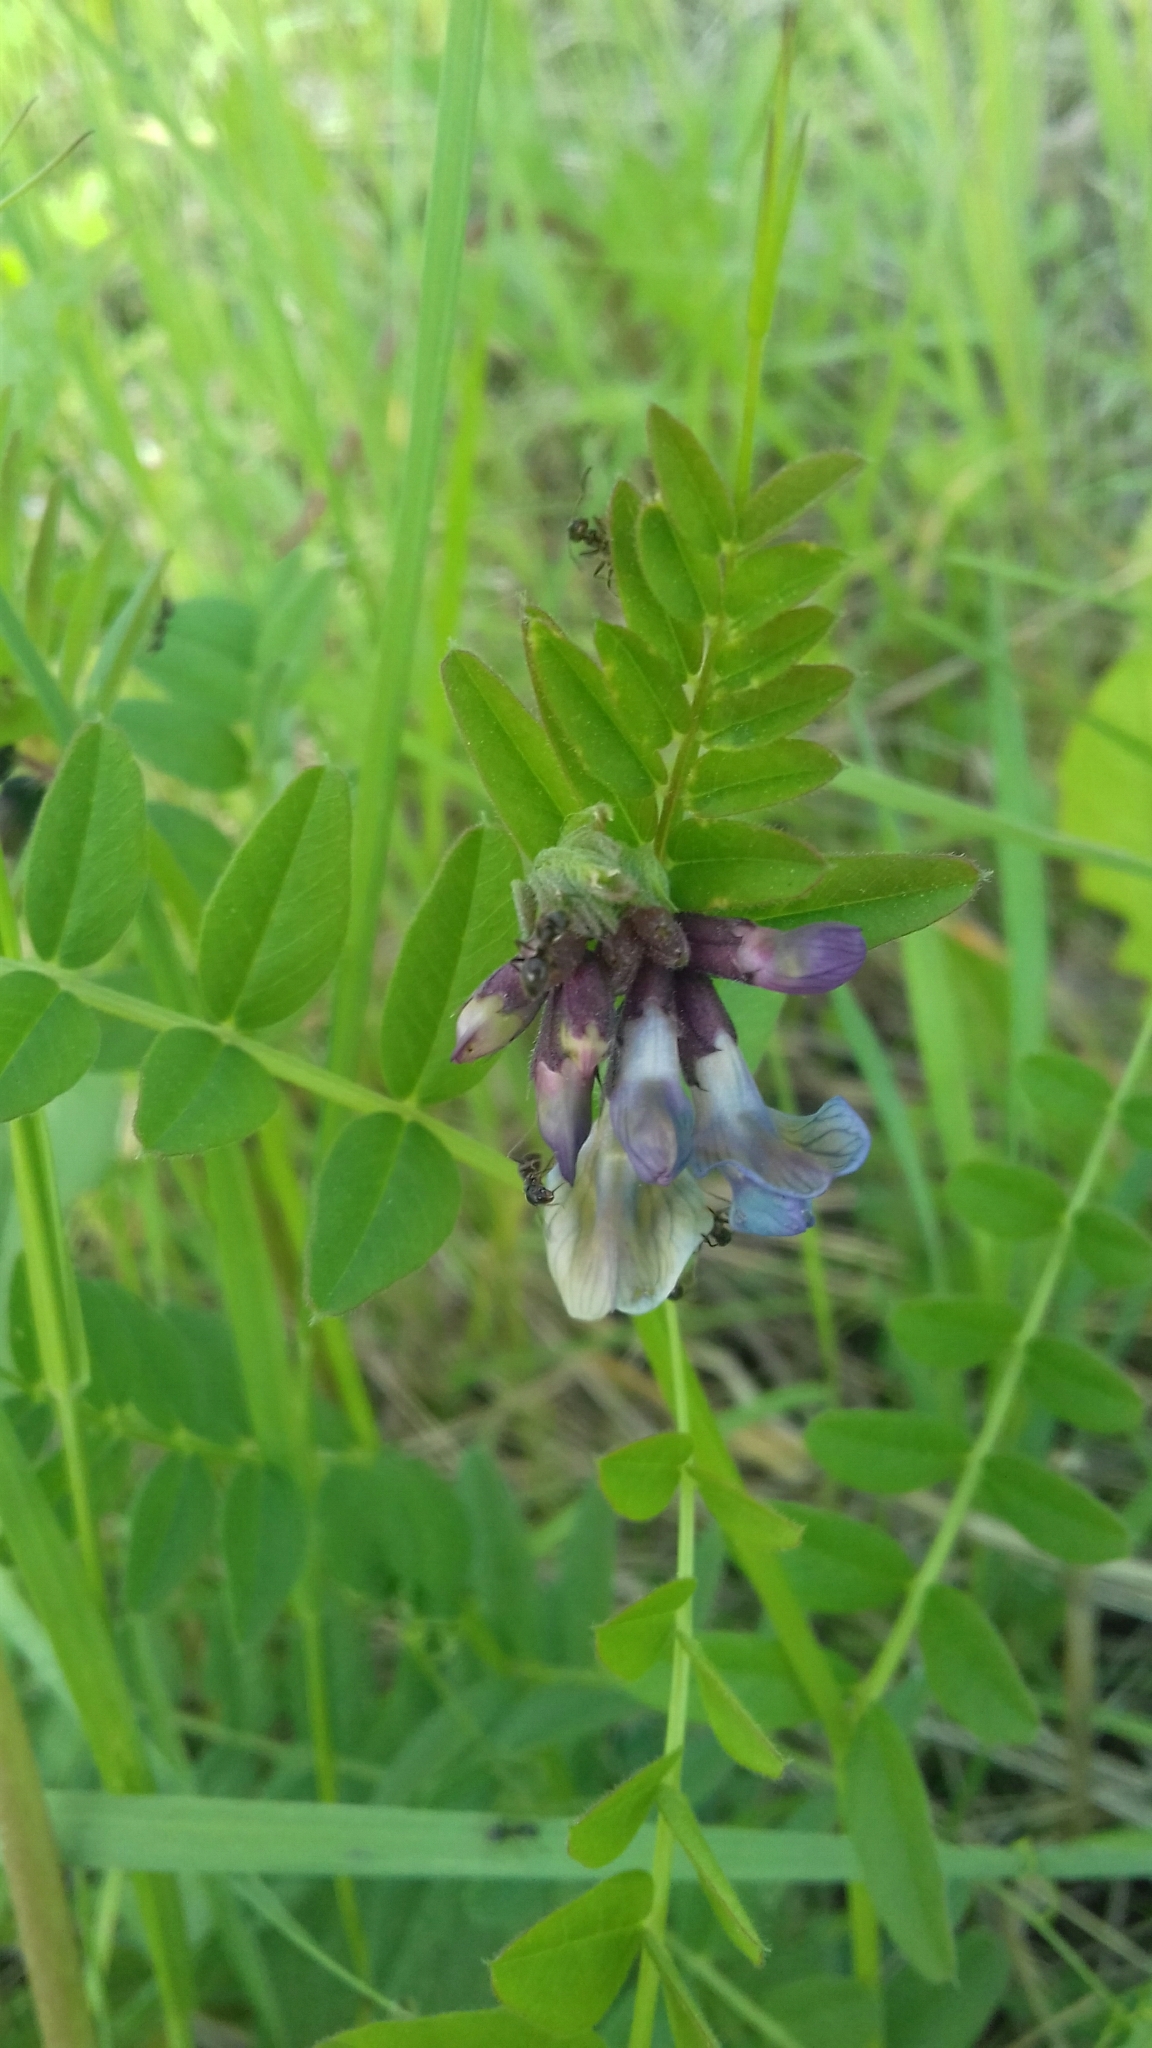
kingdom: Plantae
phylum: Tracheophyta
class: Magnoliopsida
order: Fabales
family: Fabaceae
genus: Vicia
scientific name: Vicia sepium
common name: Bush vetch
